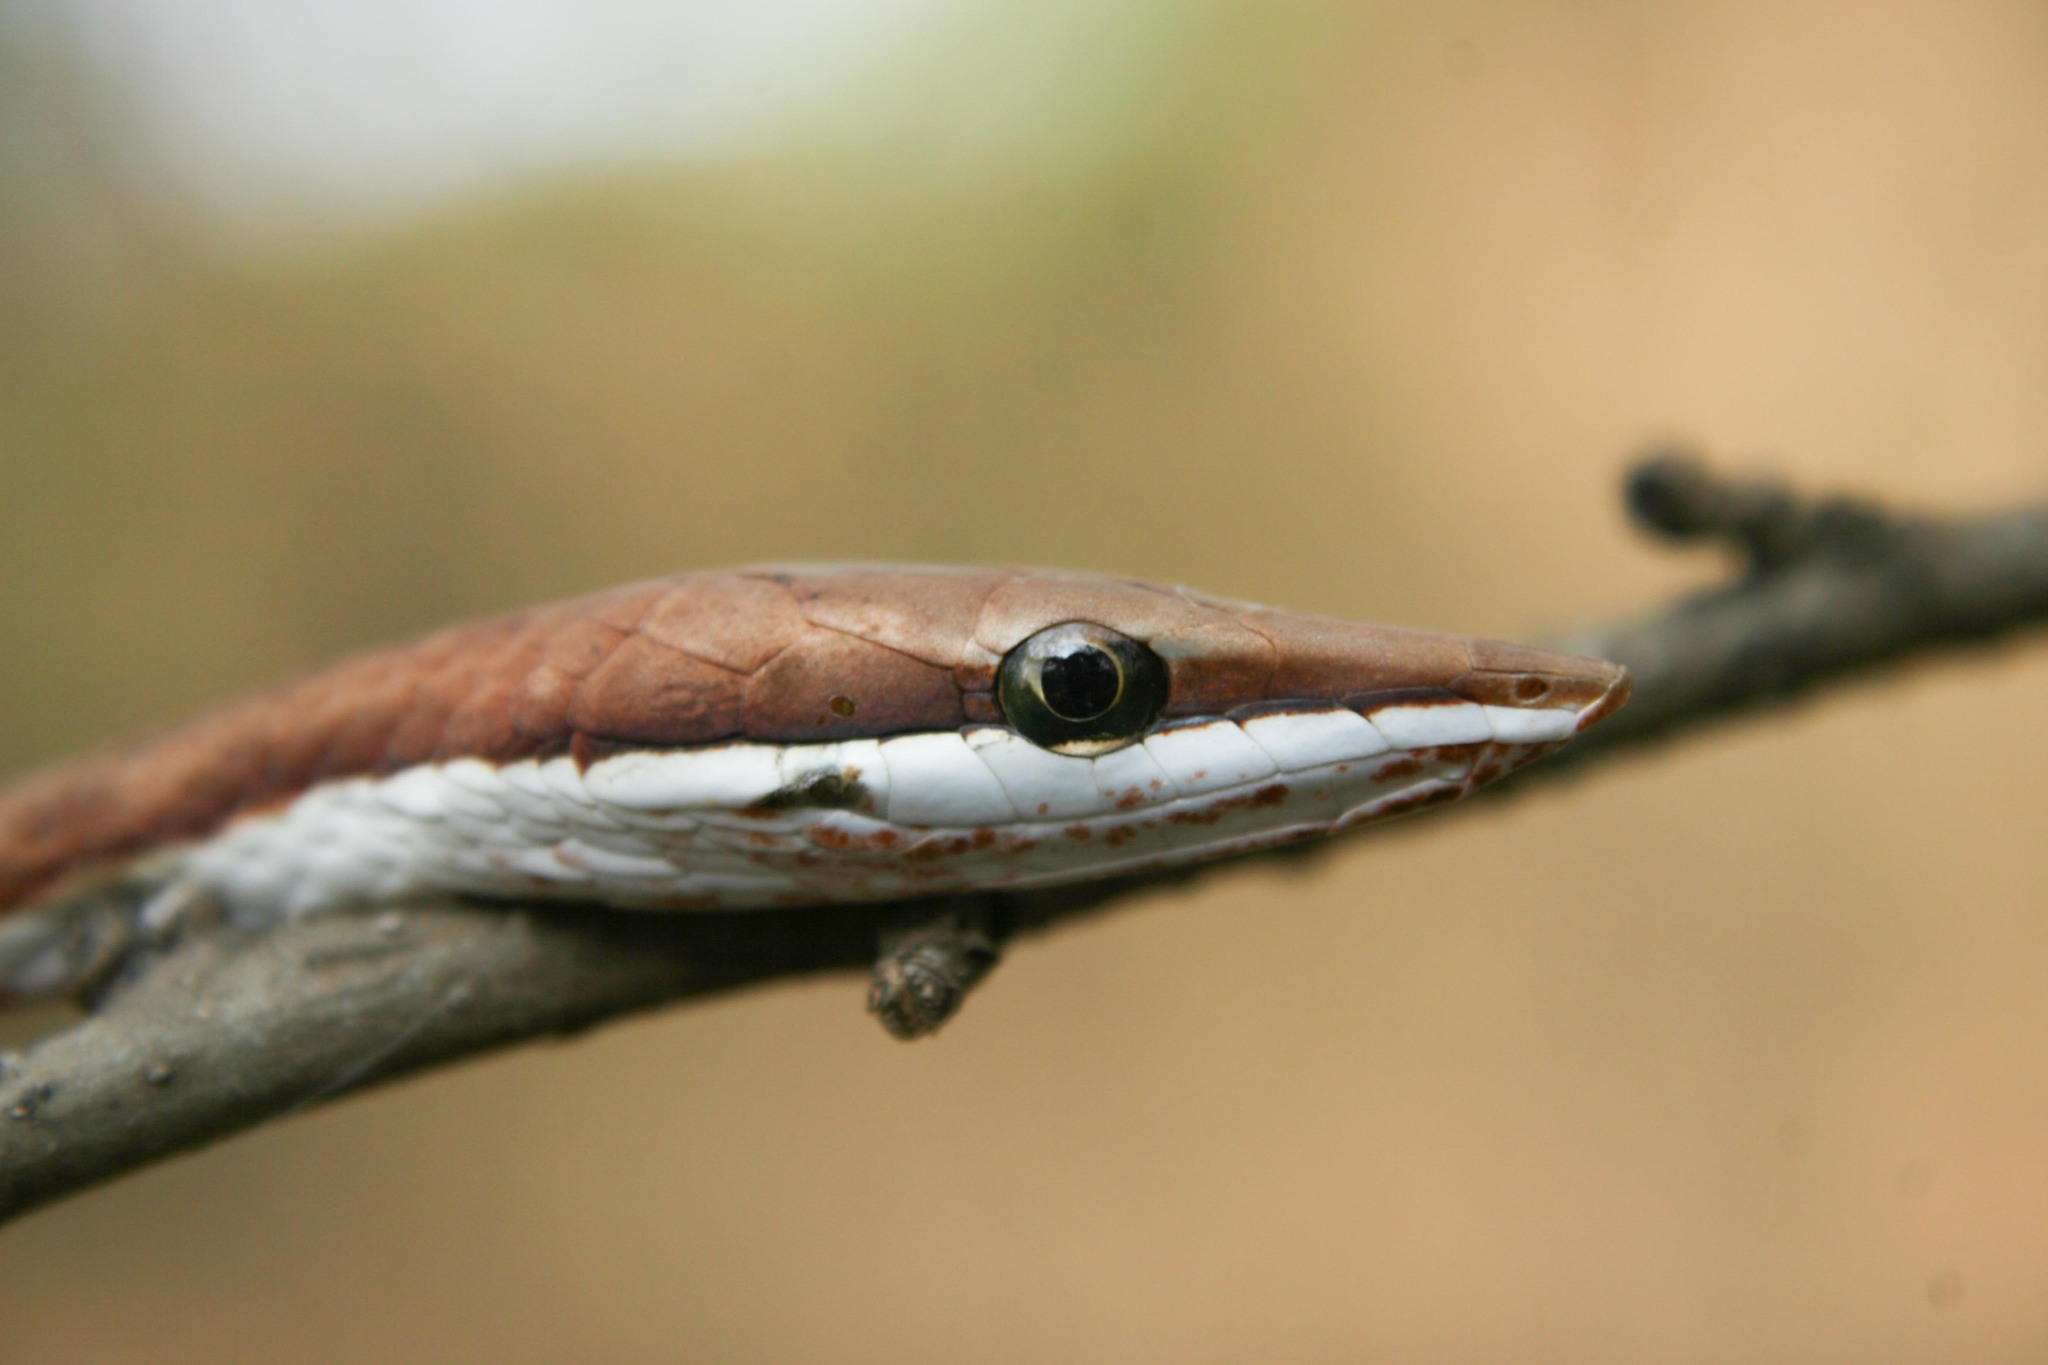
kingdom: Animalia
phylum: Chordata
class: Squamata
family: Colubridae
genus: Oxybelis
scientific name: Oxybelis koehleri
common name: Köhler’s vine snake
